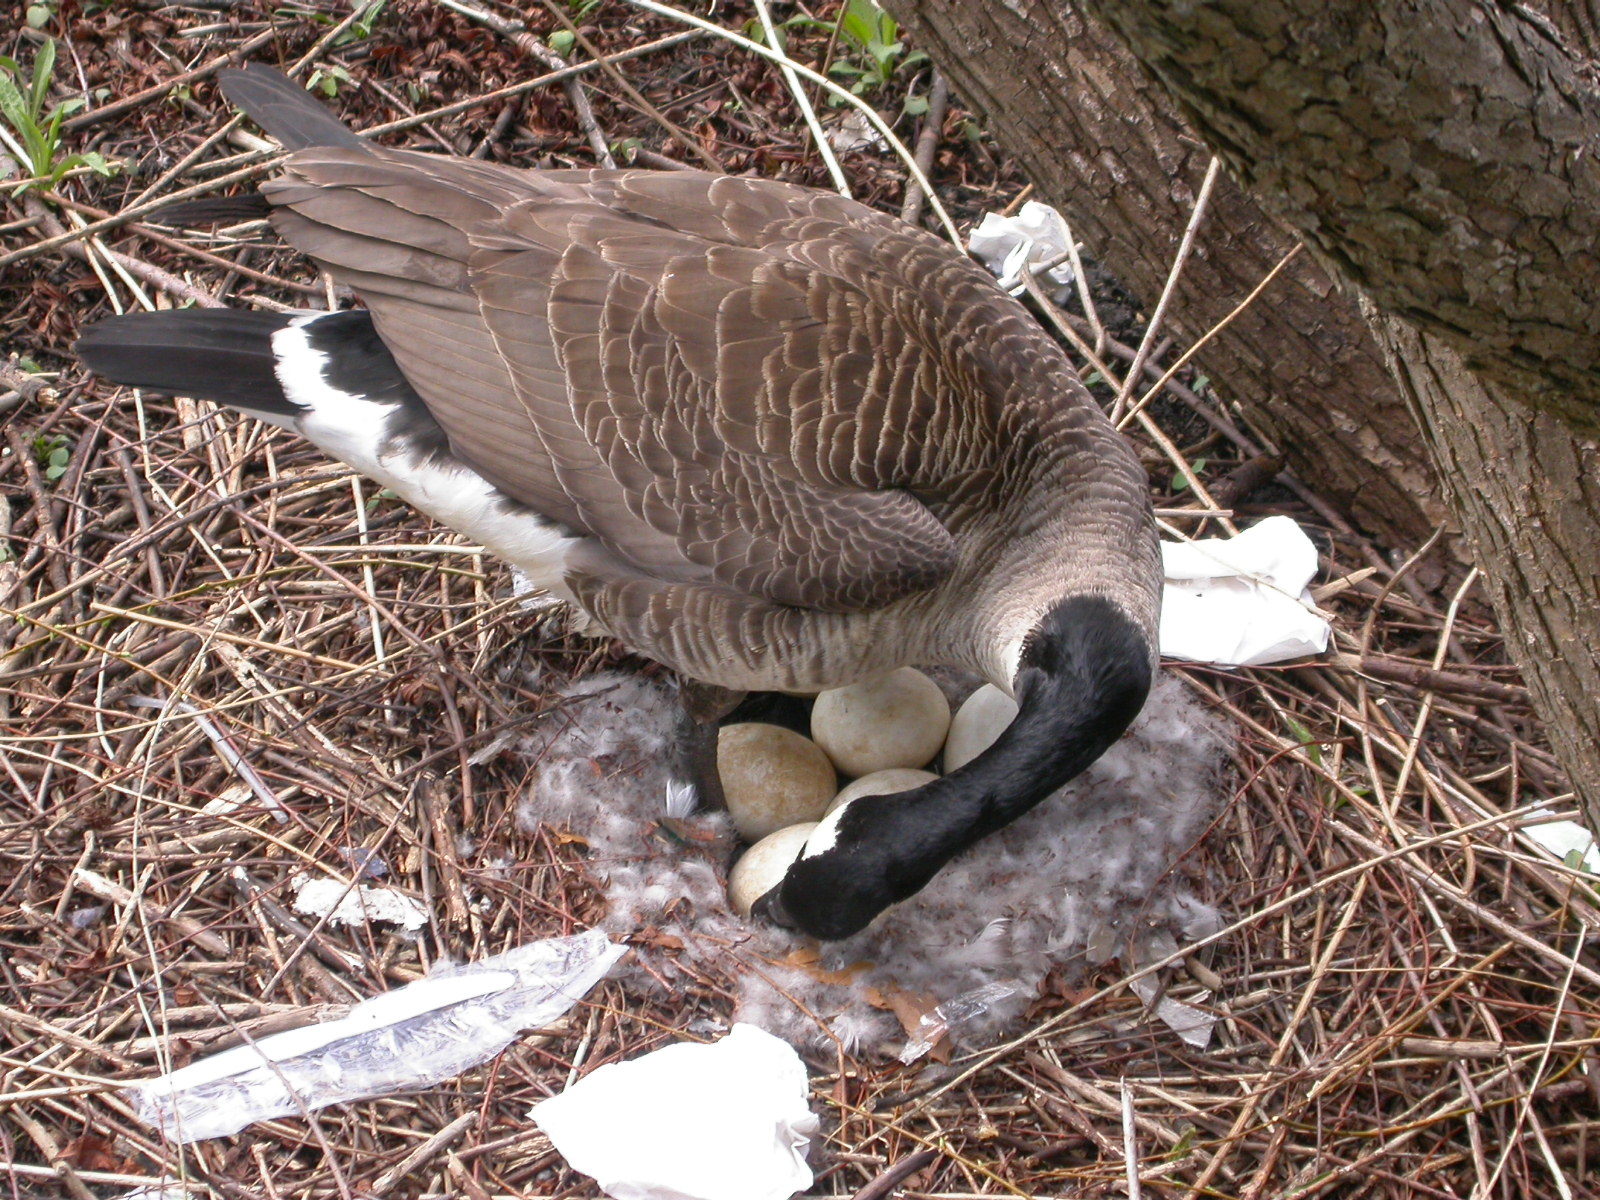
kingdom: Animalia
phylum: Chordata
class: Aves
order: Anseriformes
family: Anatidae
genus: Branta
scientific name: Branta canadensis
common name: Canada goose
